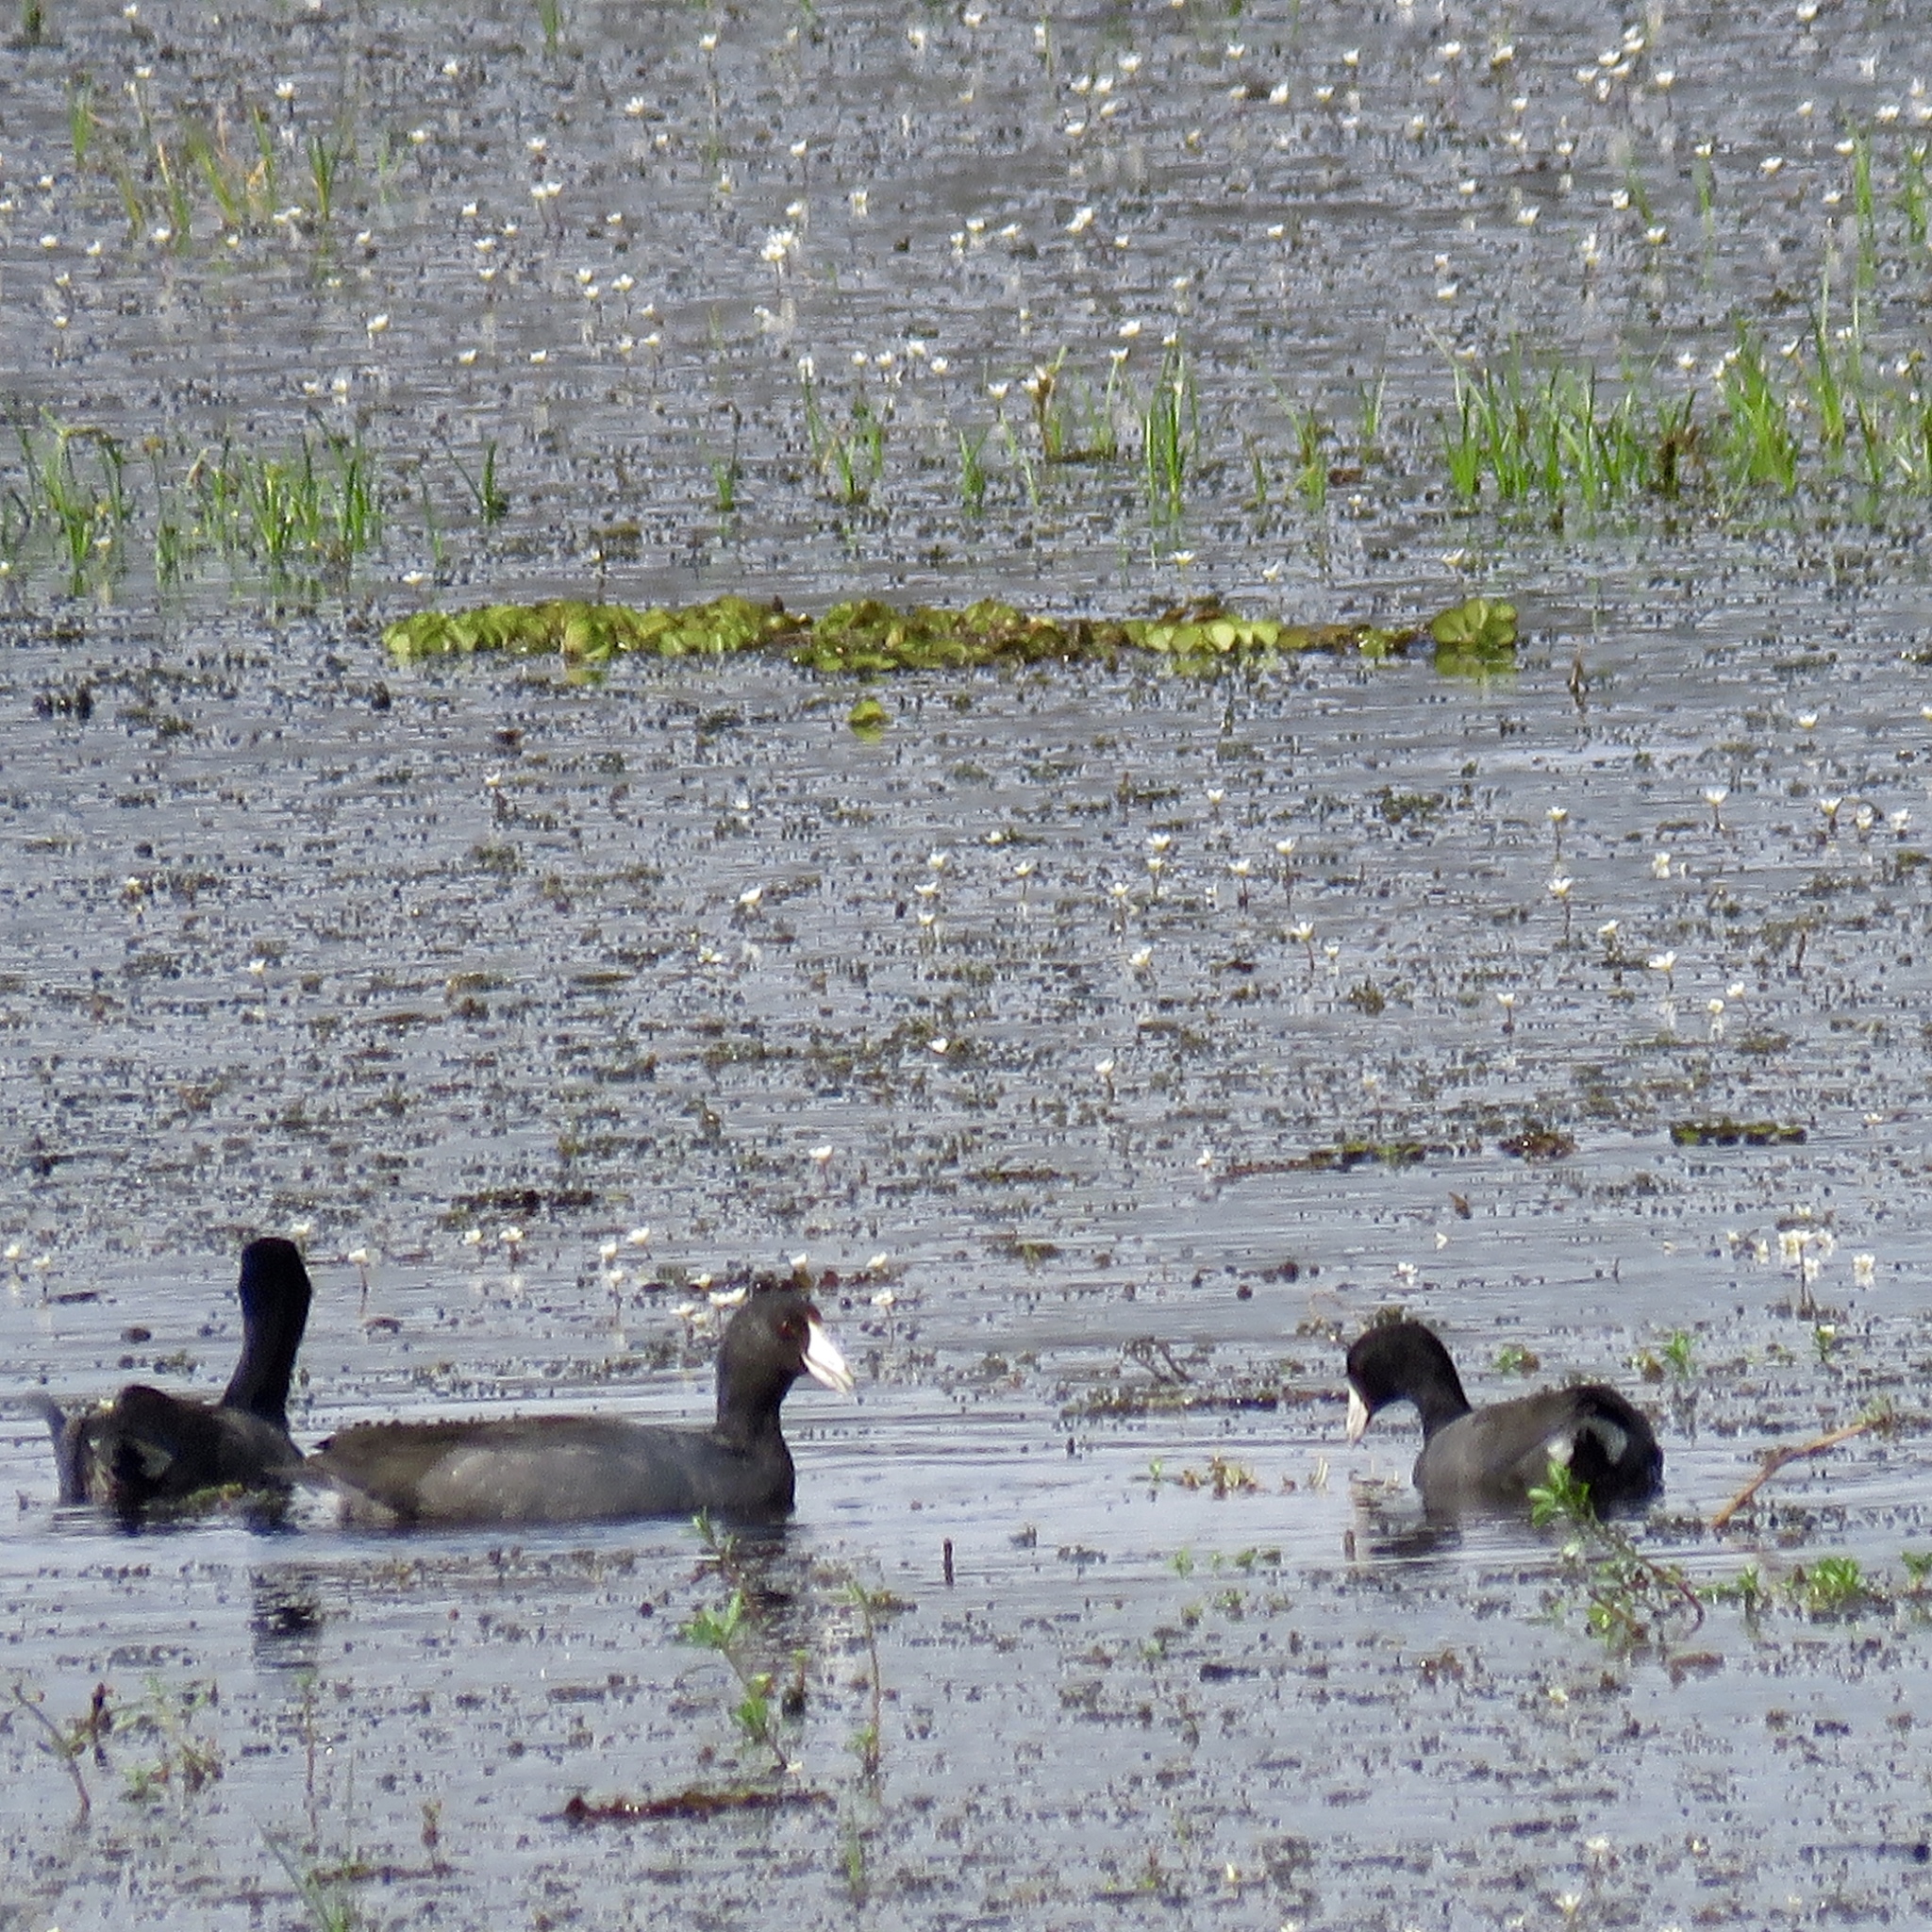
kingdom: Animalia
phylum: Chordata
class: Aves
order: Gruiformes
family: Rallidae
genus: Fulica
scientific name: Fulica americana
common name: American coot
